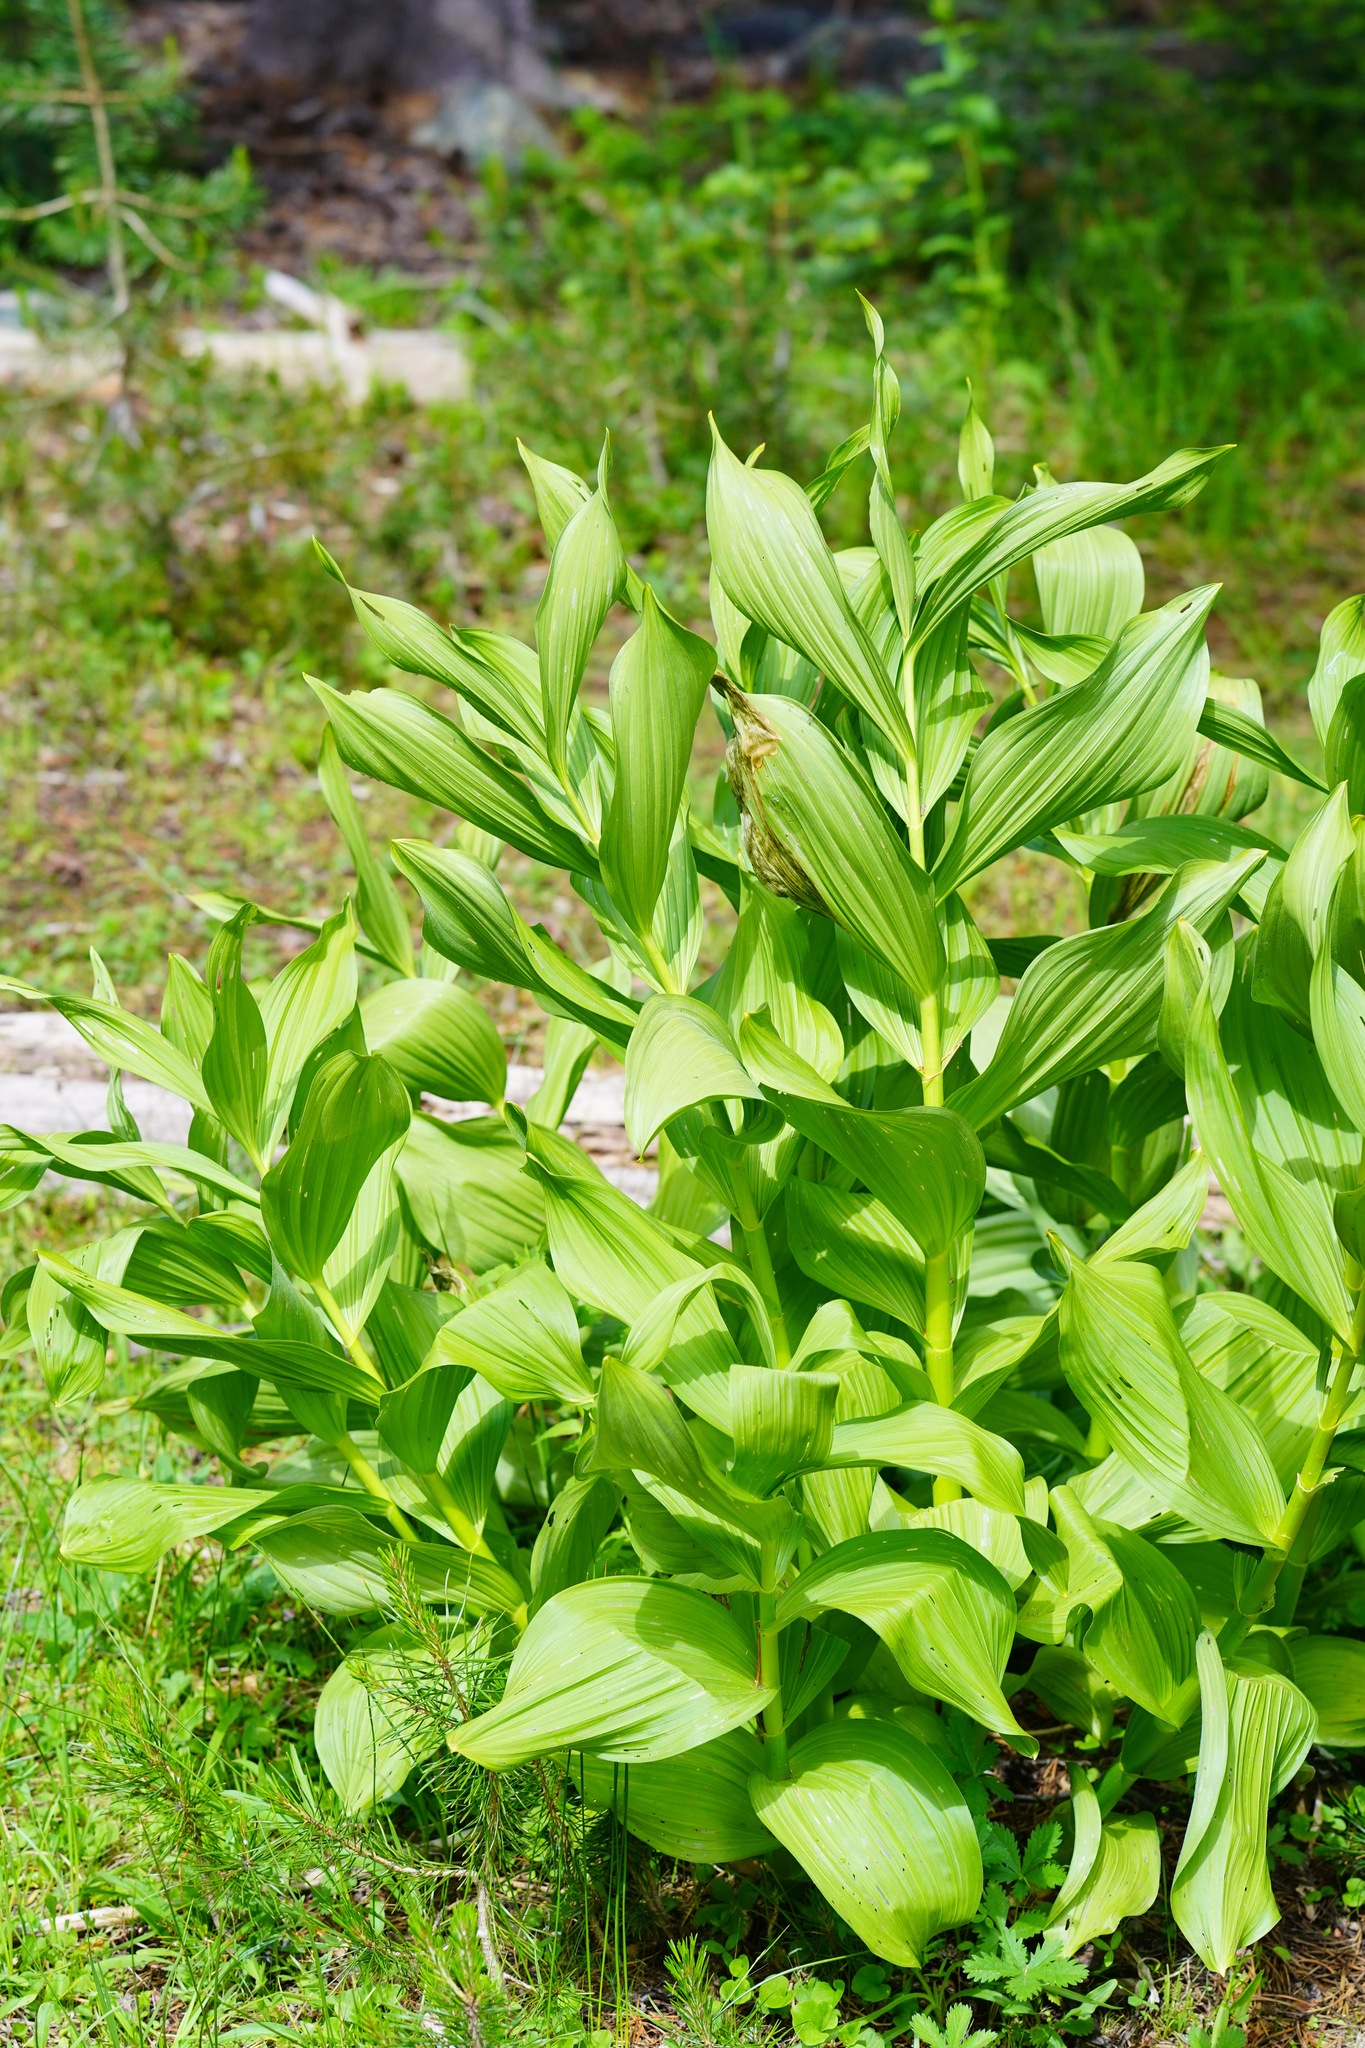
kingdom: Plantae
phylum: Tracheophyta
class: Liliopsida
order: Liliales
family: Melanthiaceae
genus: Veratrum
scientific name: Veratrum californicum
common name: California veratrum
